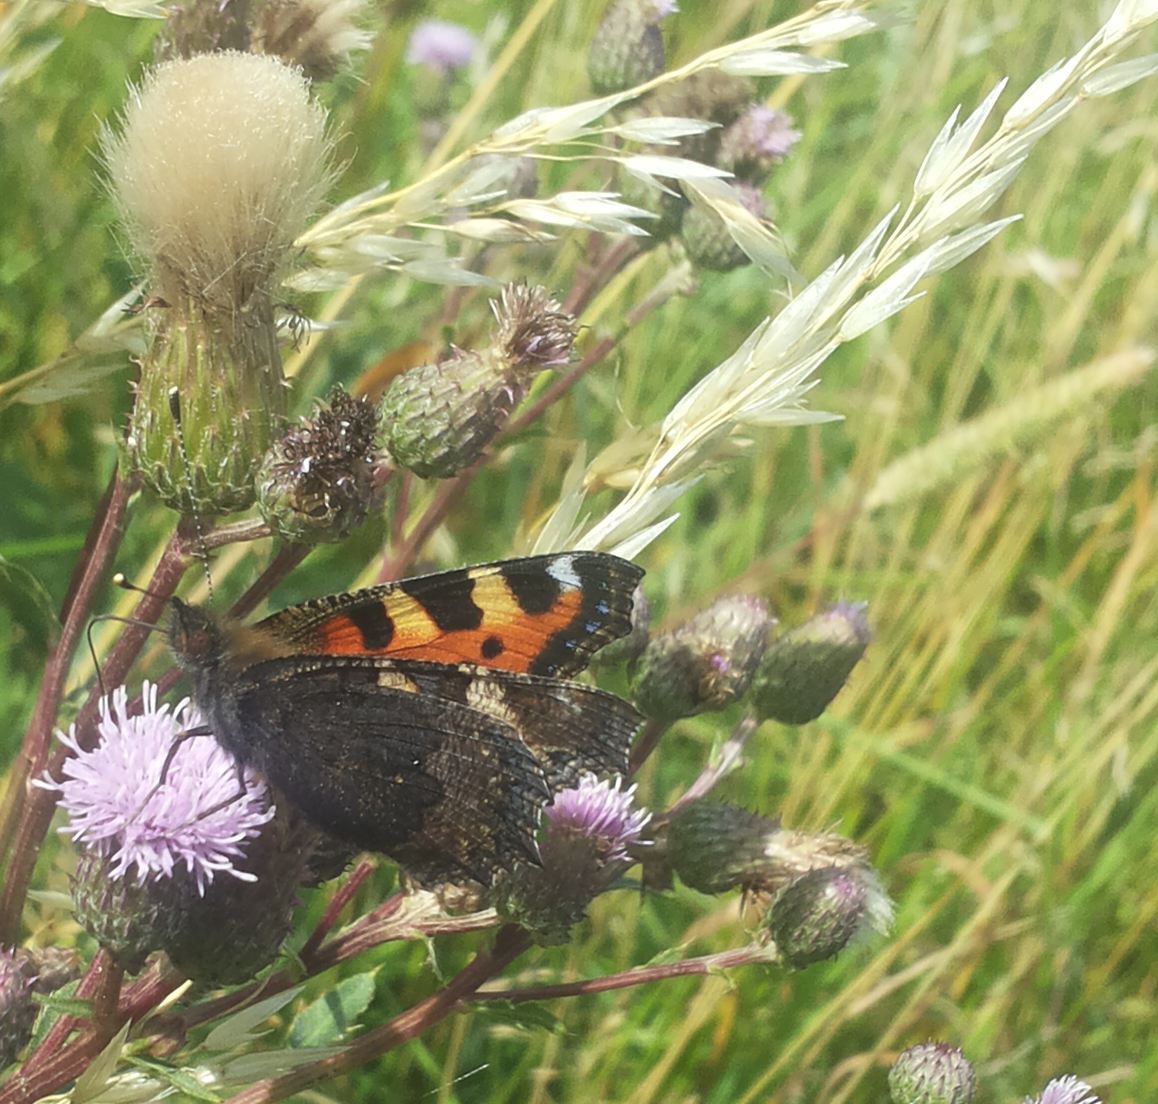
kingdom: Animalia
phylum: Arthropoda
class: Insecta
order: Lepidoptera
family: Nymphalidae
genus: Aglais
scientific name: Aglais urticae
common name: Small tortoiseshell
